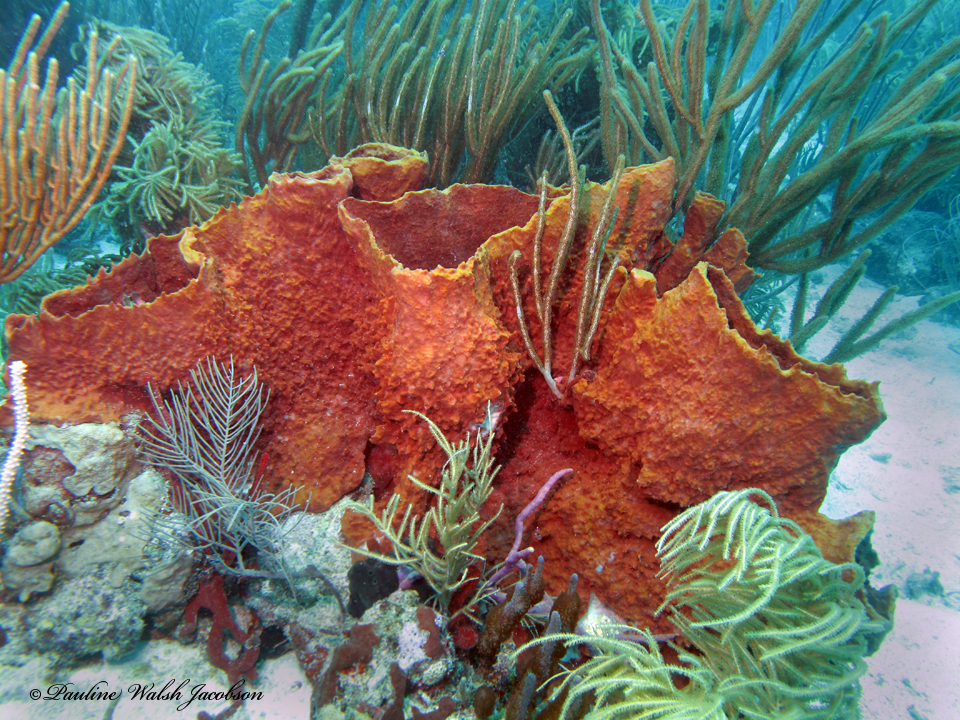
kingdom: Animalia
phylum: Porifera
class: Demospongiae
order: Haplosclerida
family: Petrosiidae
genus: Xestospongia
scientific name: Xestospongia muta
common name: Giant barrel sponge
